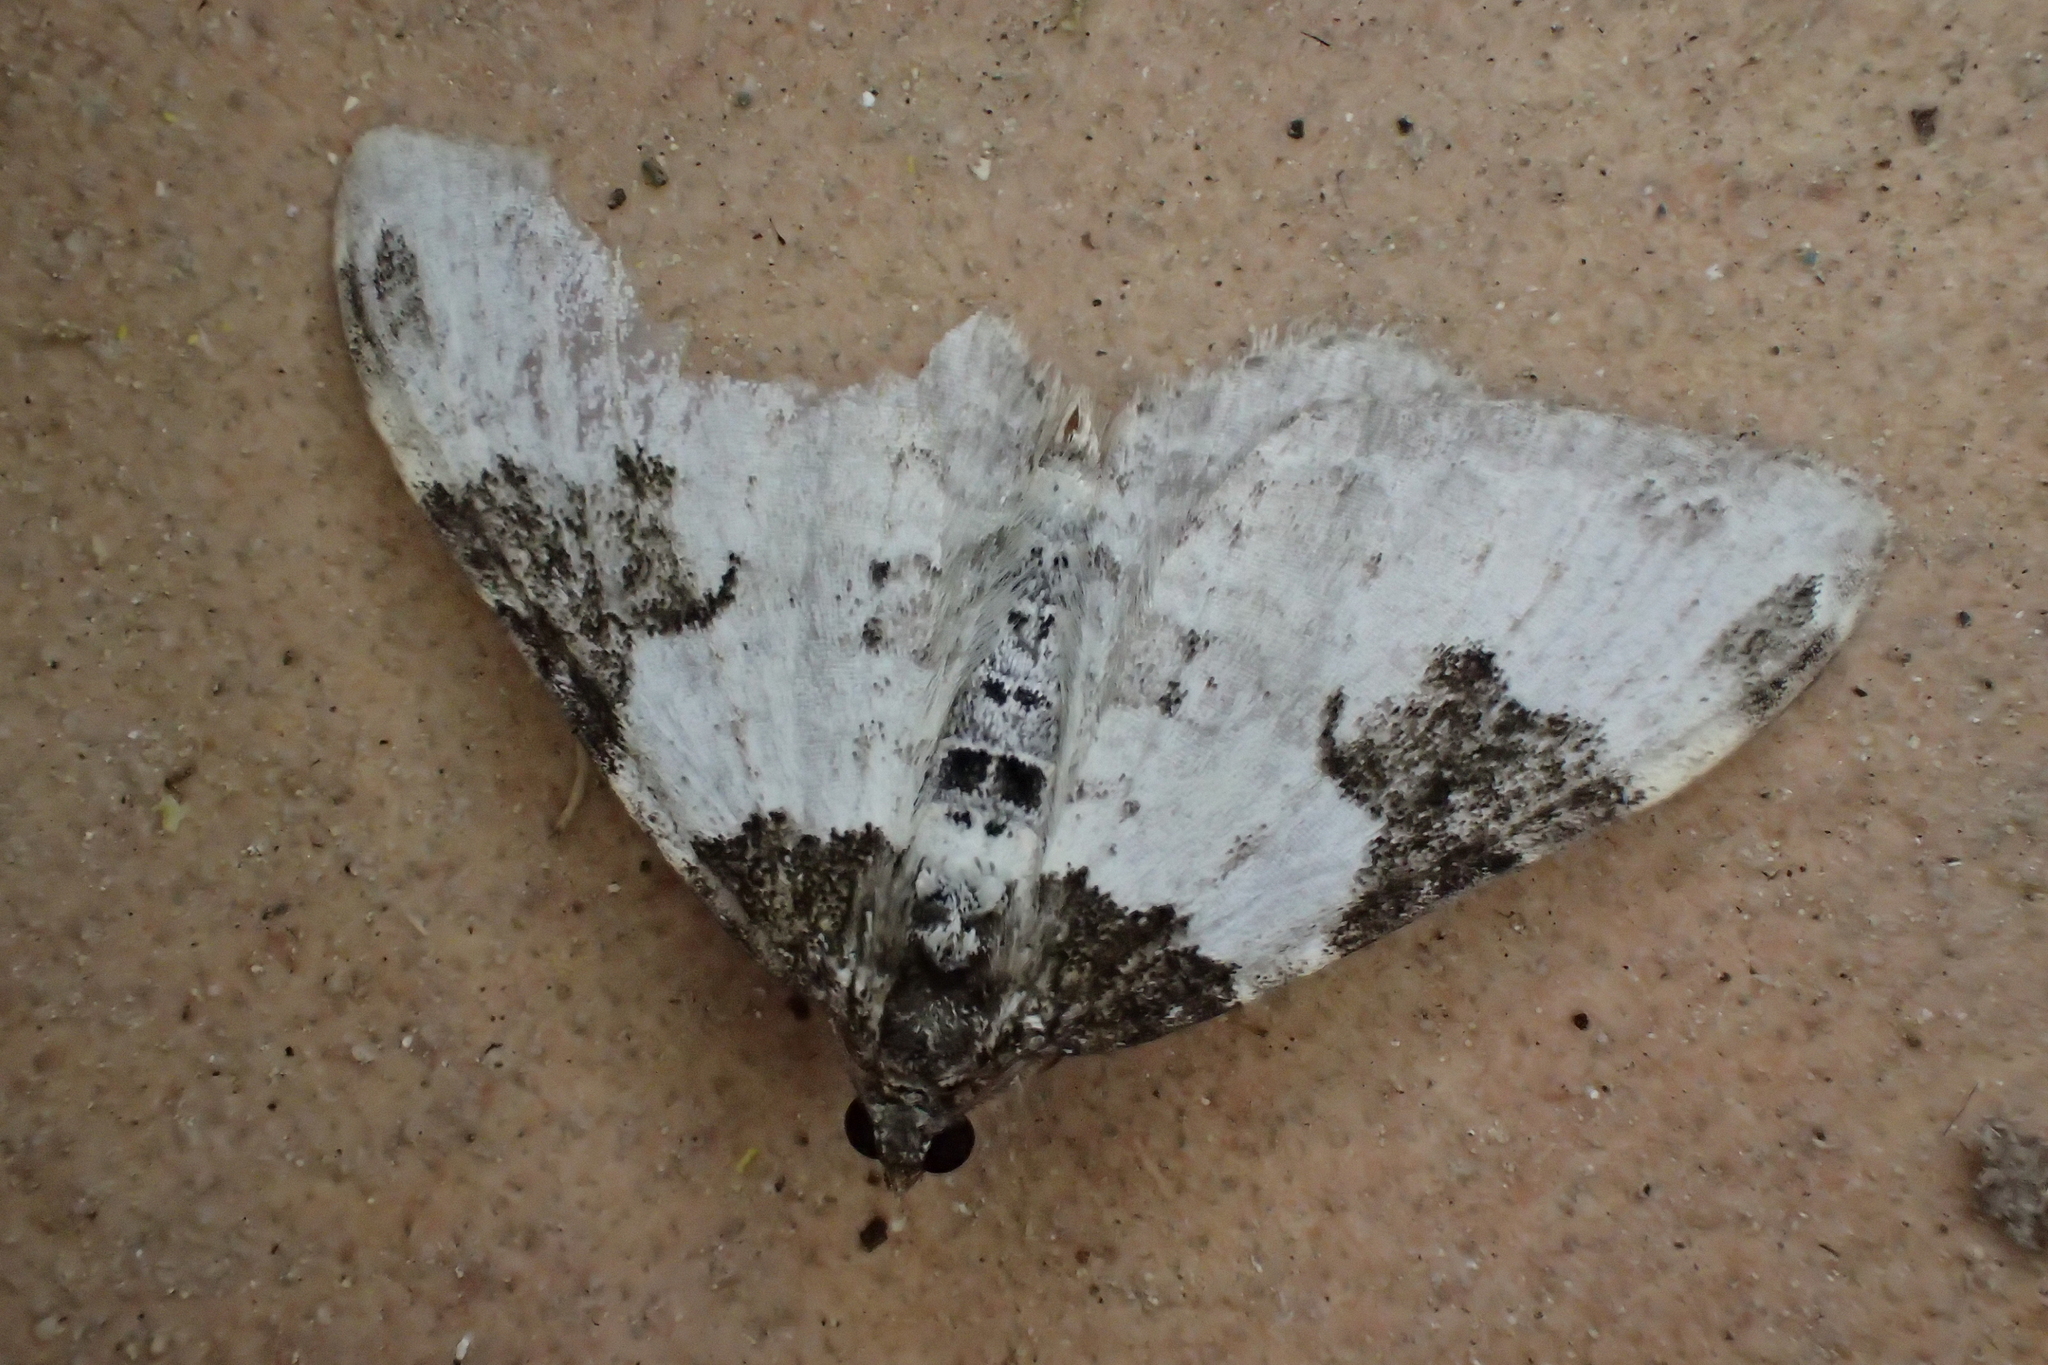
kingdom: Animalia
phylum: Arthropoda
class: Insecta
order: Lepidoptera
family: Geometridae
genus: Xanthorhoe
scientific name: Xanthorhoe fluctuata
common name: Garden carpet
